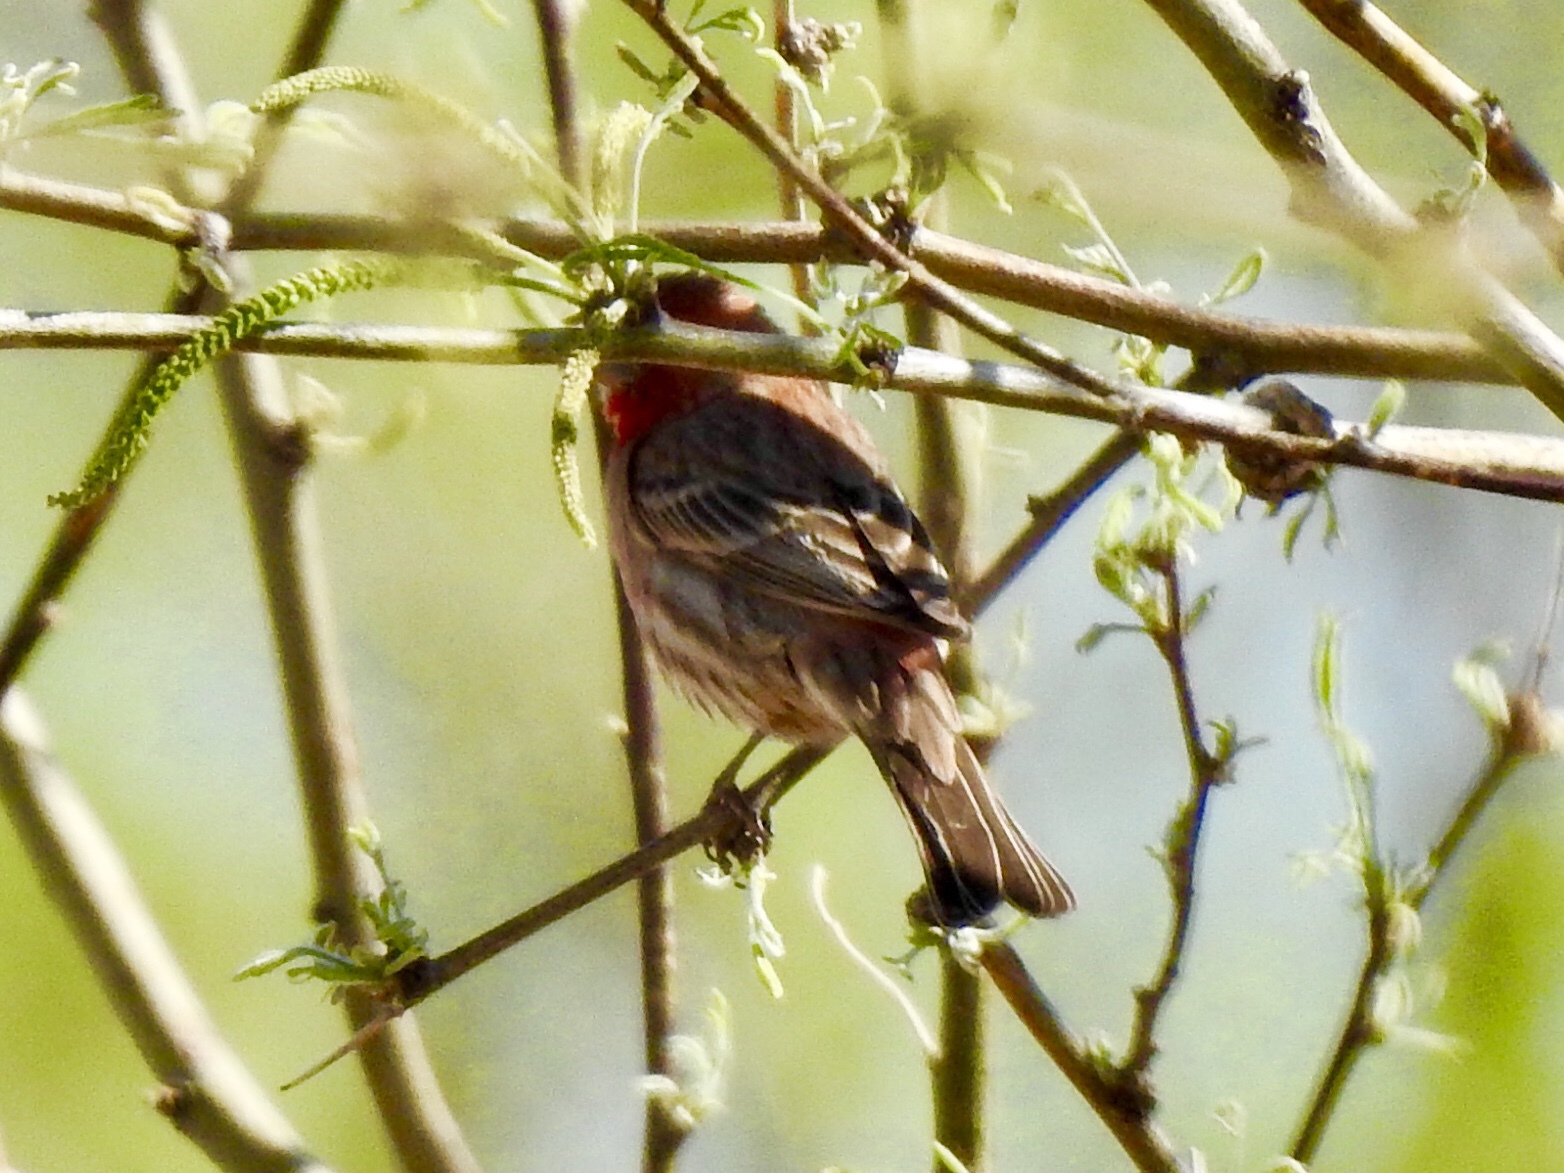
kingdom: Animalia
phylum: Chordata
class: Aves
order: Passeriformes
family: Fringillidae
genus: Haemorhous
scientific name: Haemorhous mexicanus
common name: House finch
